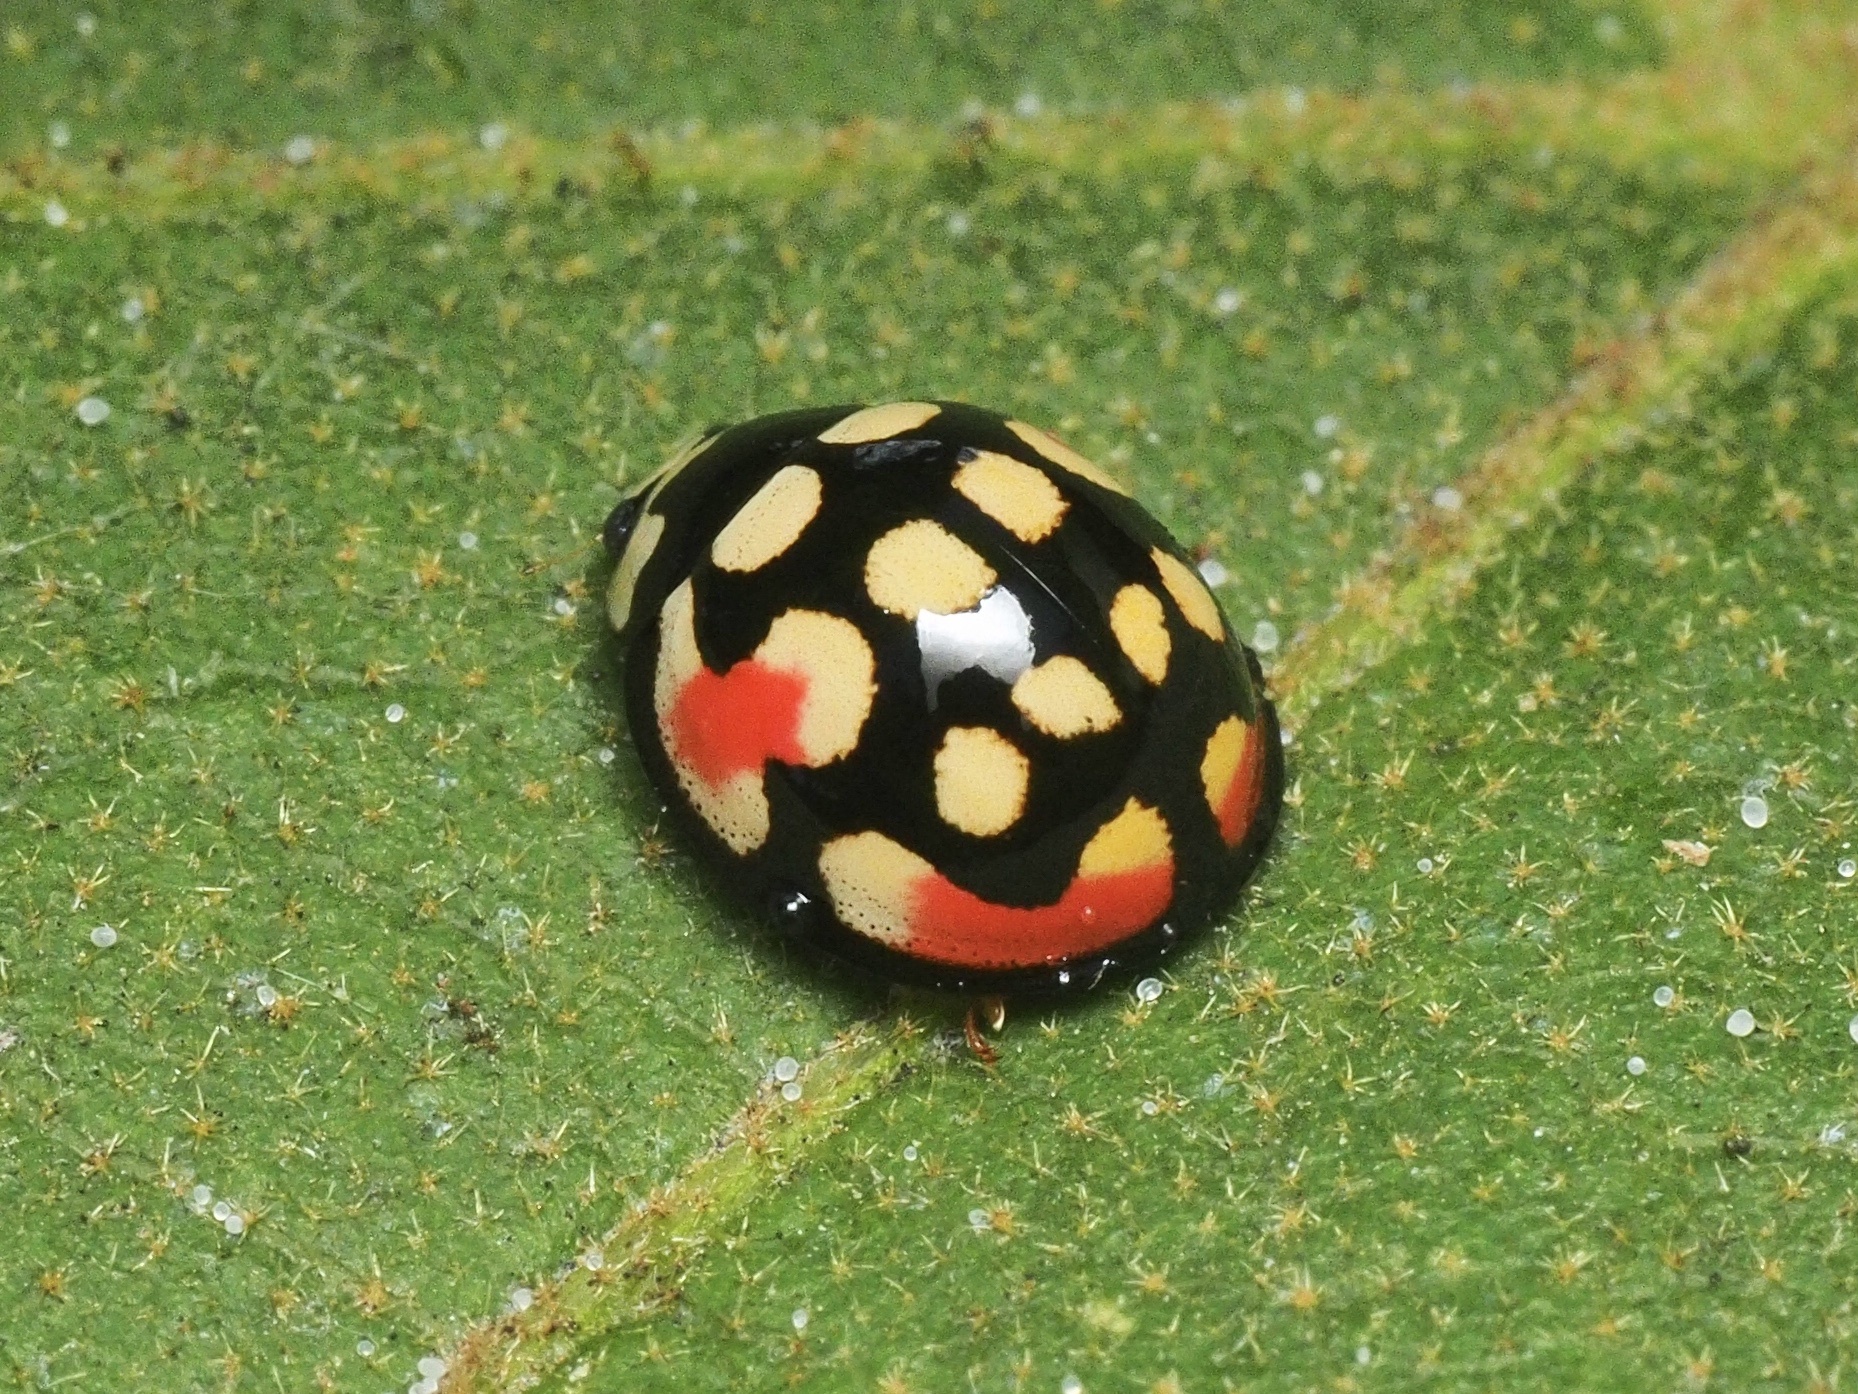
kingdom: Animalia
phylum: Arthropoda
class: Insecta
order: Coleoptera
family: Coccinellidae
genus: Cheilomenes
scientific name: Cheilomenes sulphurea
